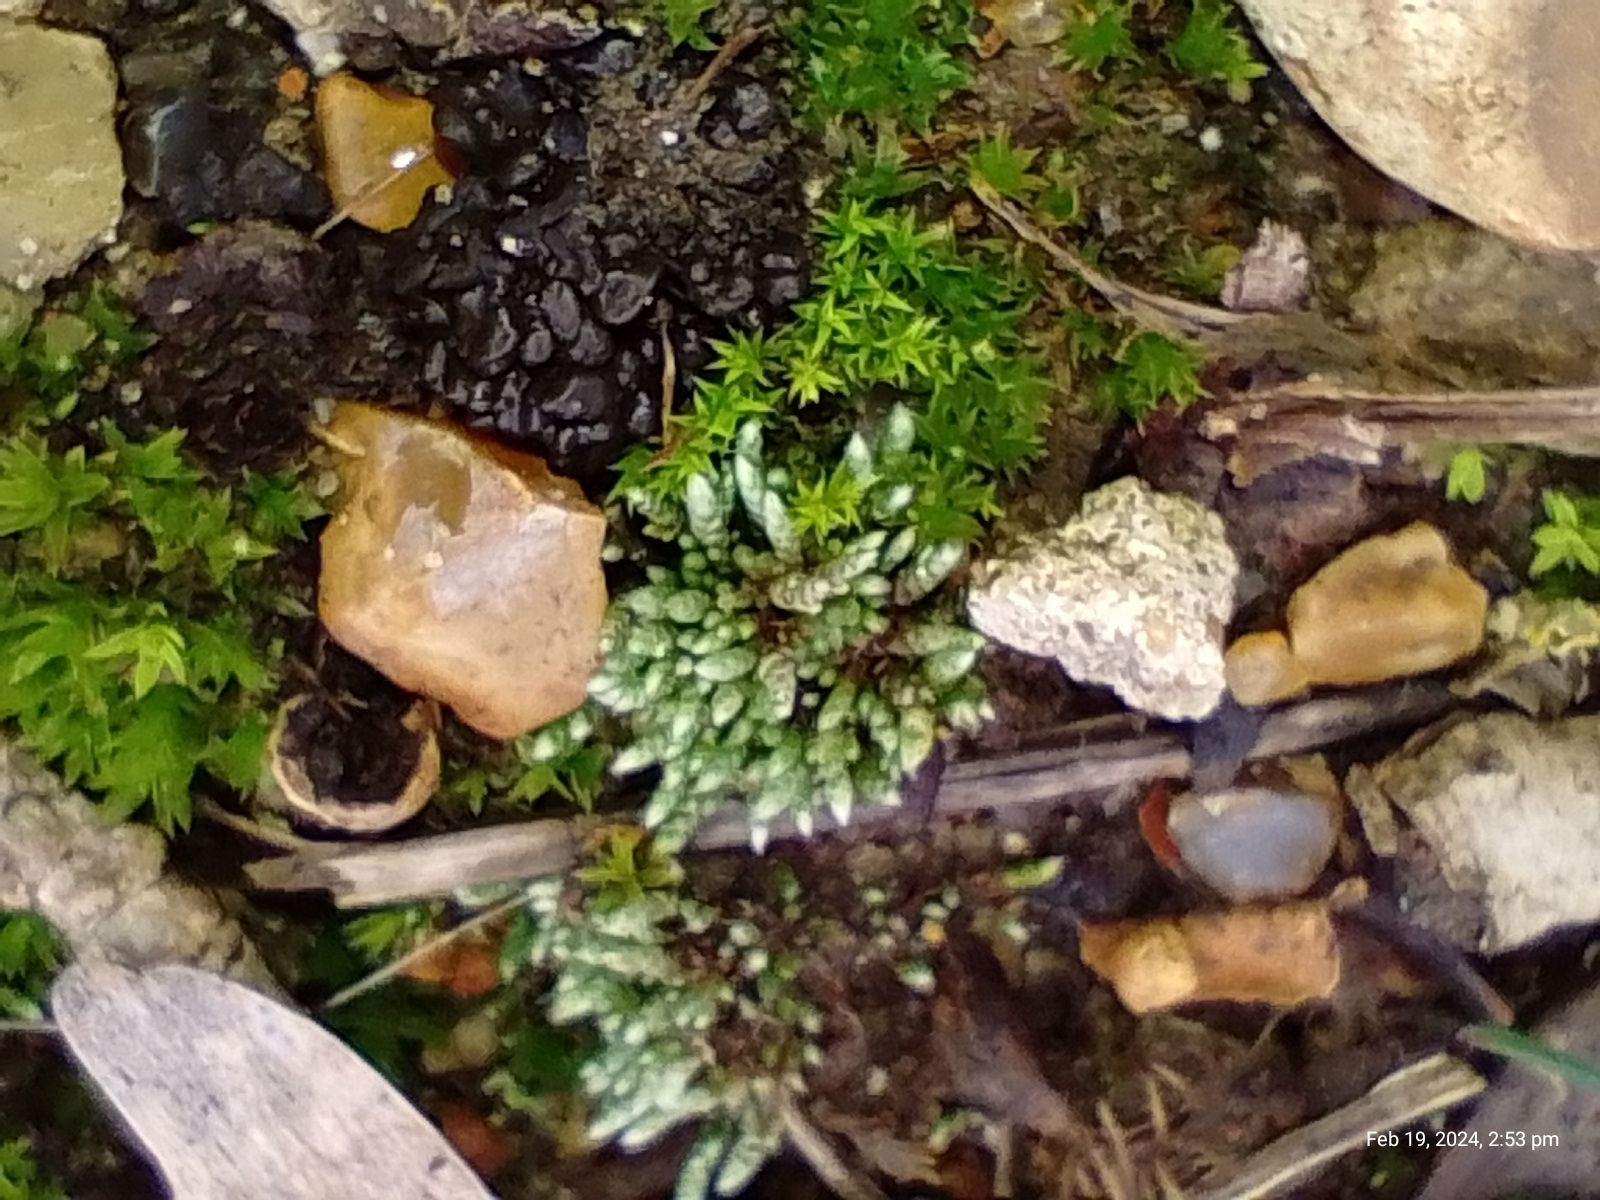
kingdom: Plantae
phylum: Bryophyta
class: Bryopsida
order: Bryales
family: Bryaceae
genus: Bryum
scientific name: Bryum argenteum
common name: Silver-moss
